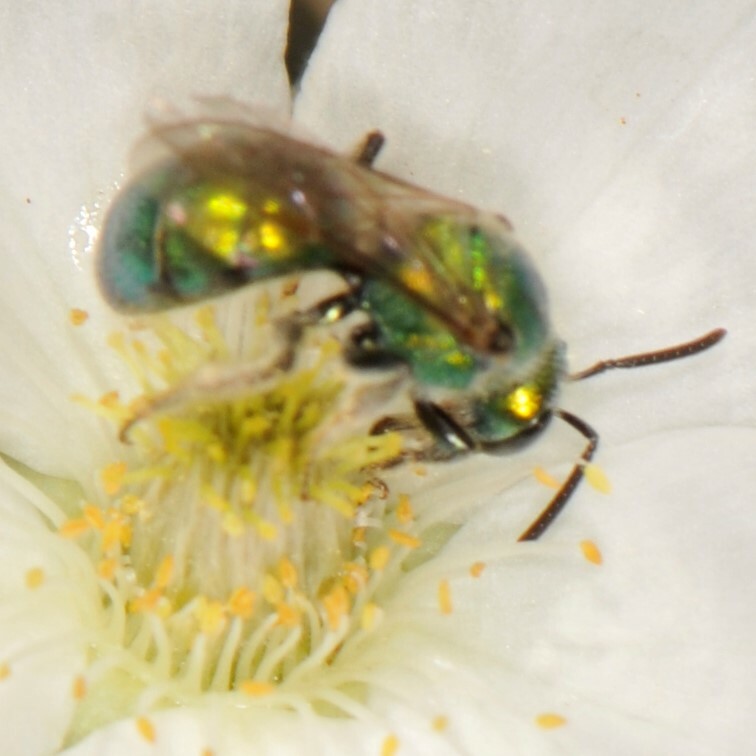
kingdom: Animalia
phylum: Arthropoda
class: Insecta
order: Hymenoptera
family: Halictidae
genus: Augochlorella
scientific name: Augochlorella
